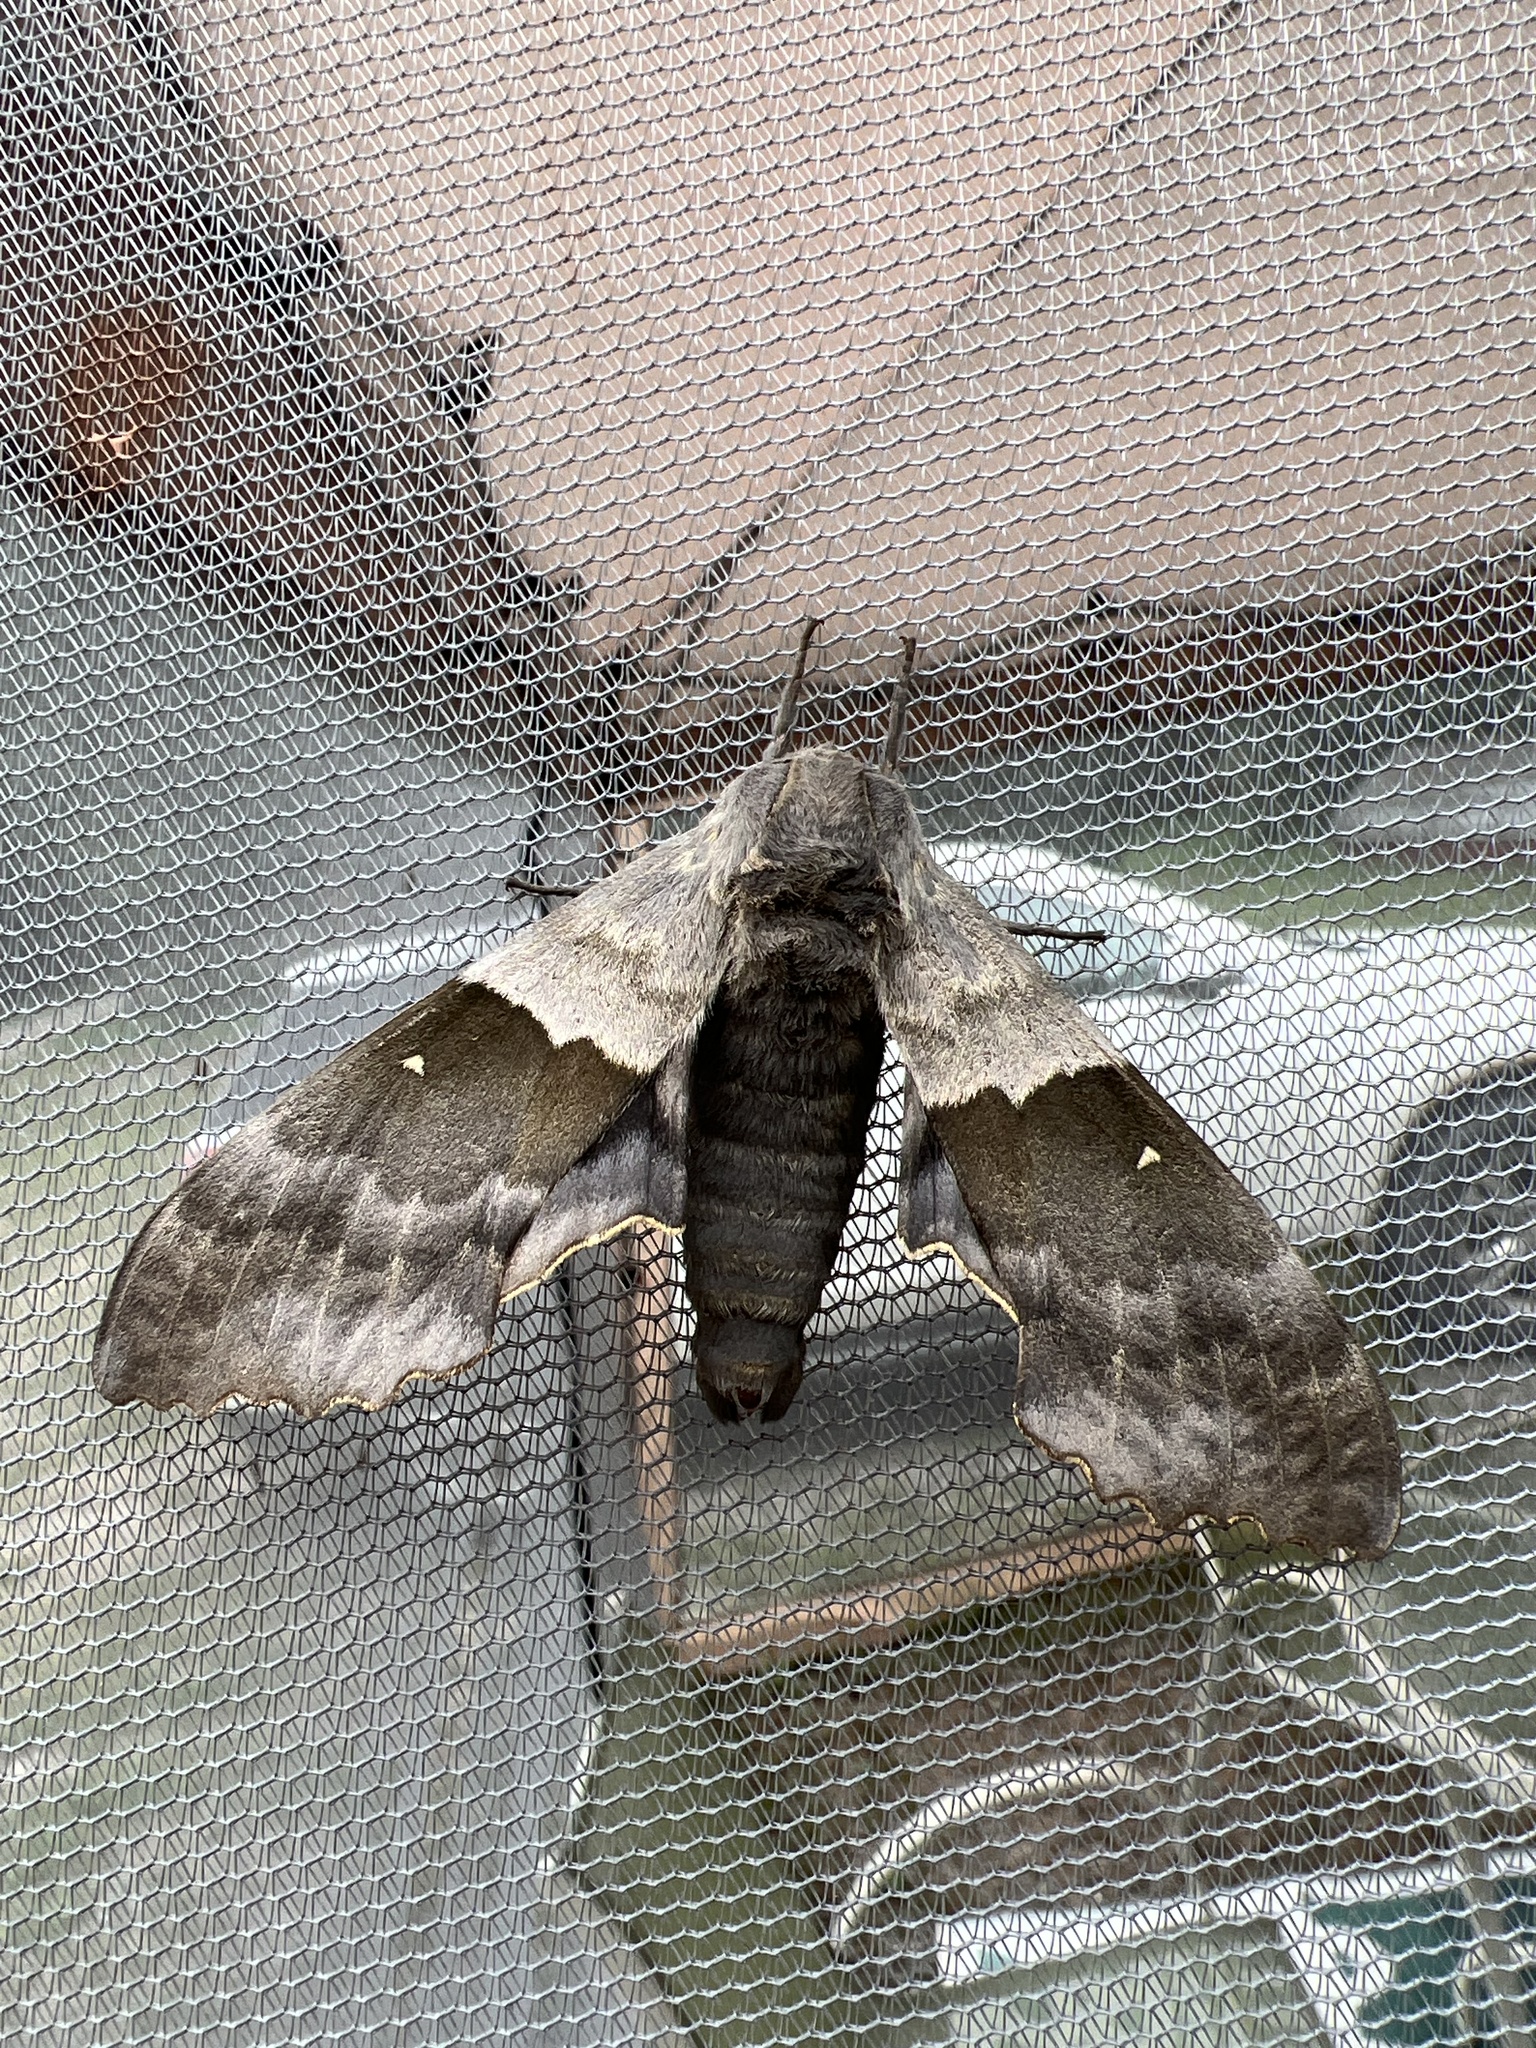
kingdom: Animalia
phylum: Arthropoda
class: Insecta
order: Lepidoptera
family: Sphingidae
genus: Pachysphinx
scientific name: Pachysphinx modesta
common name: Big poplar sphinx
